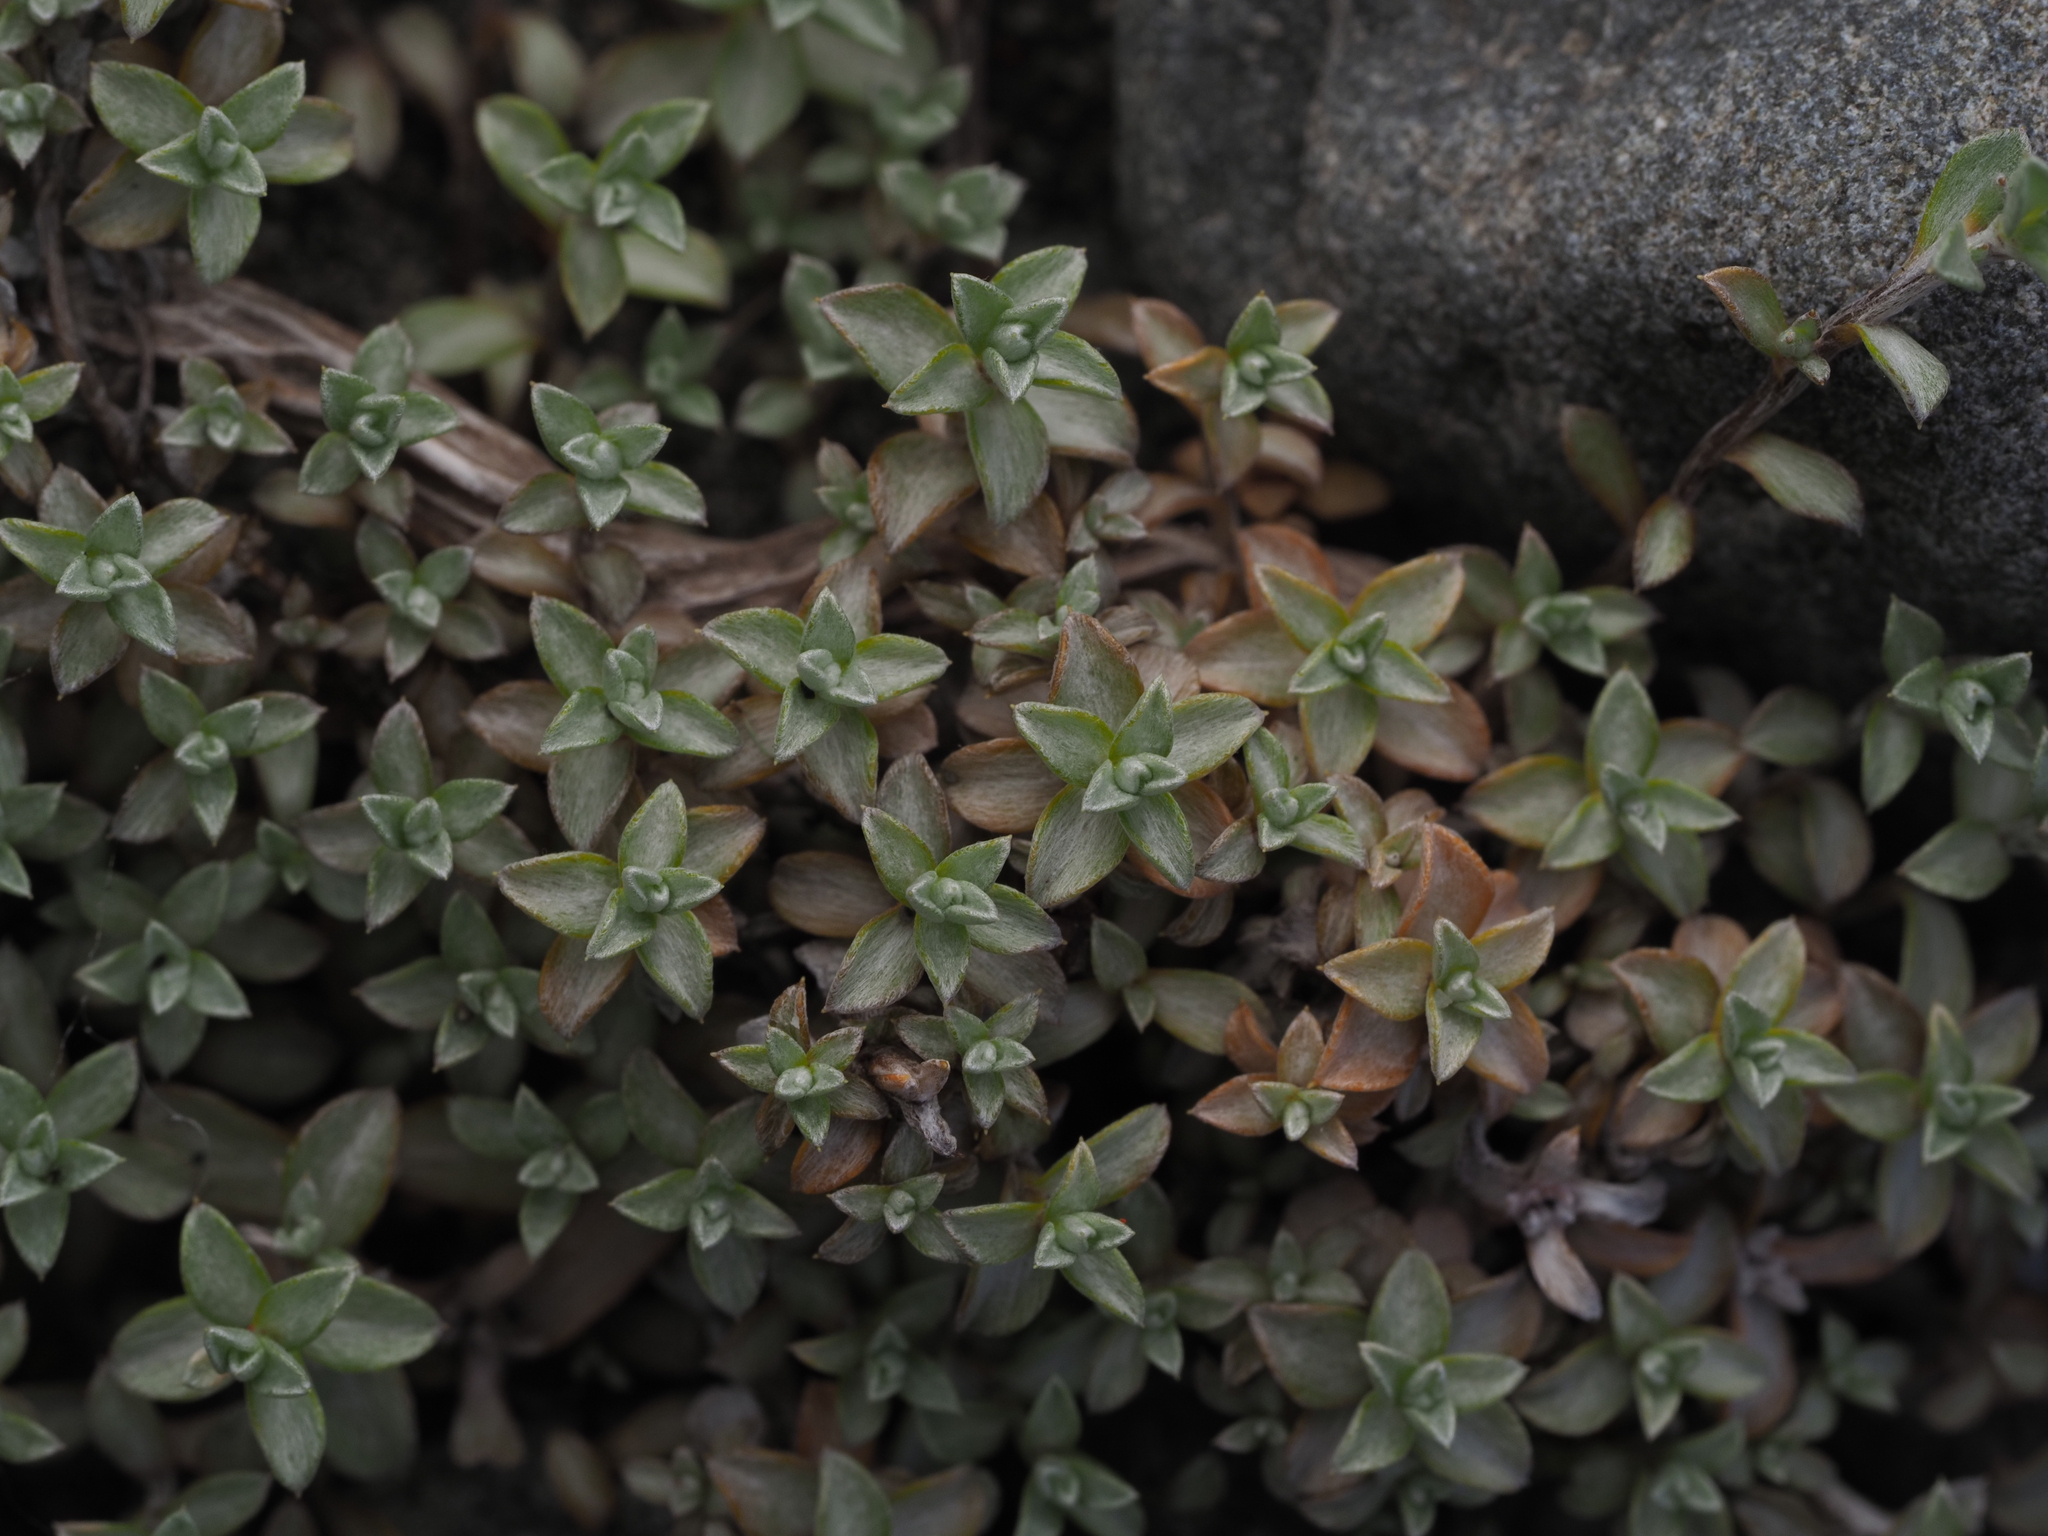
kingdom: Plantae
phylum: Tracheophyta
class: Magnoliopsida
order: Asterales
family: Asteraceae
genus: Raoulia
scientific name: Raoulia tenuicaulis
